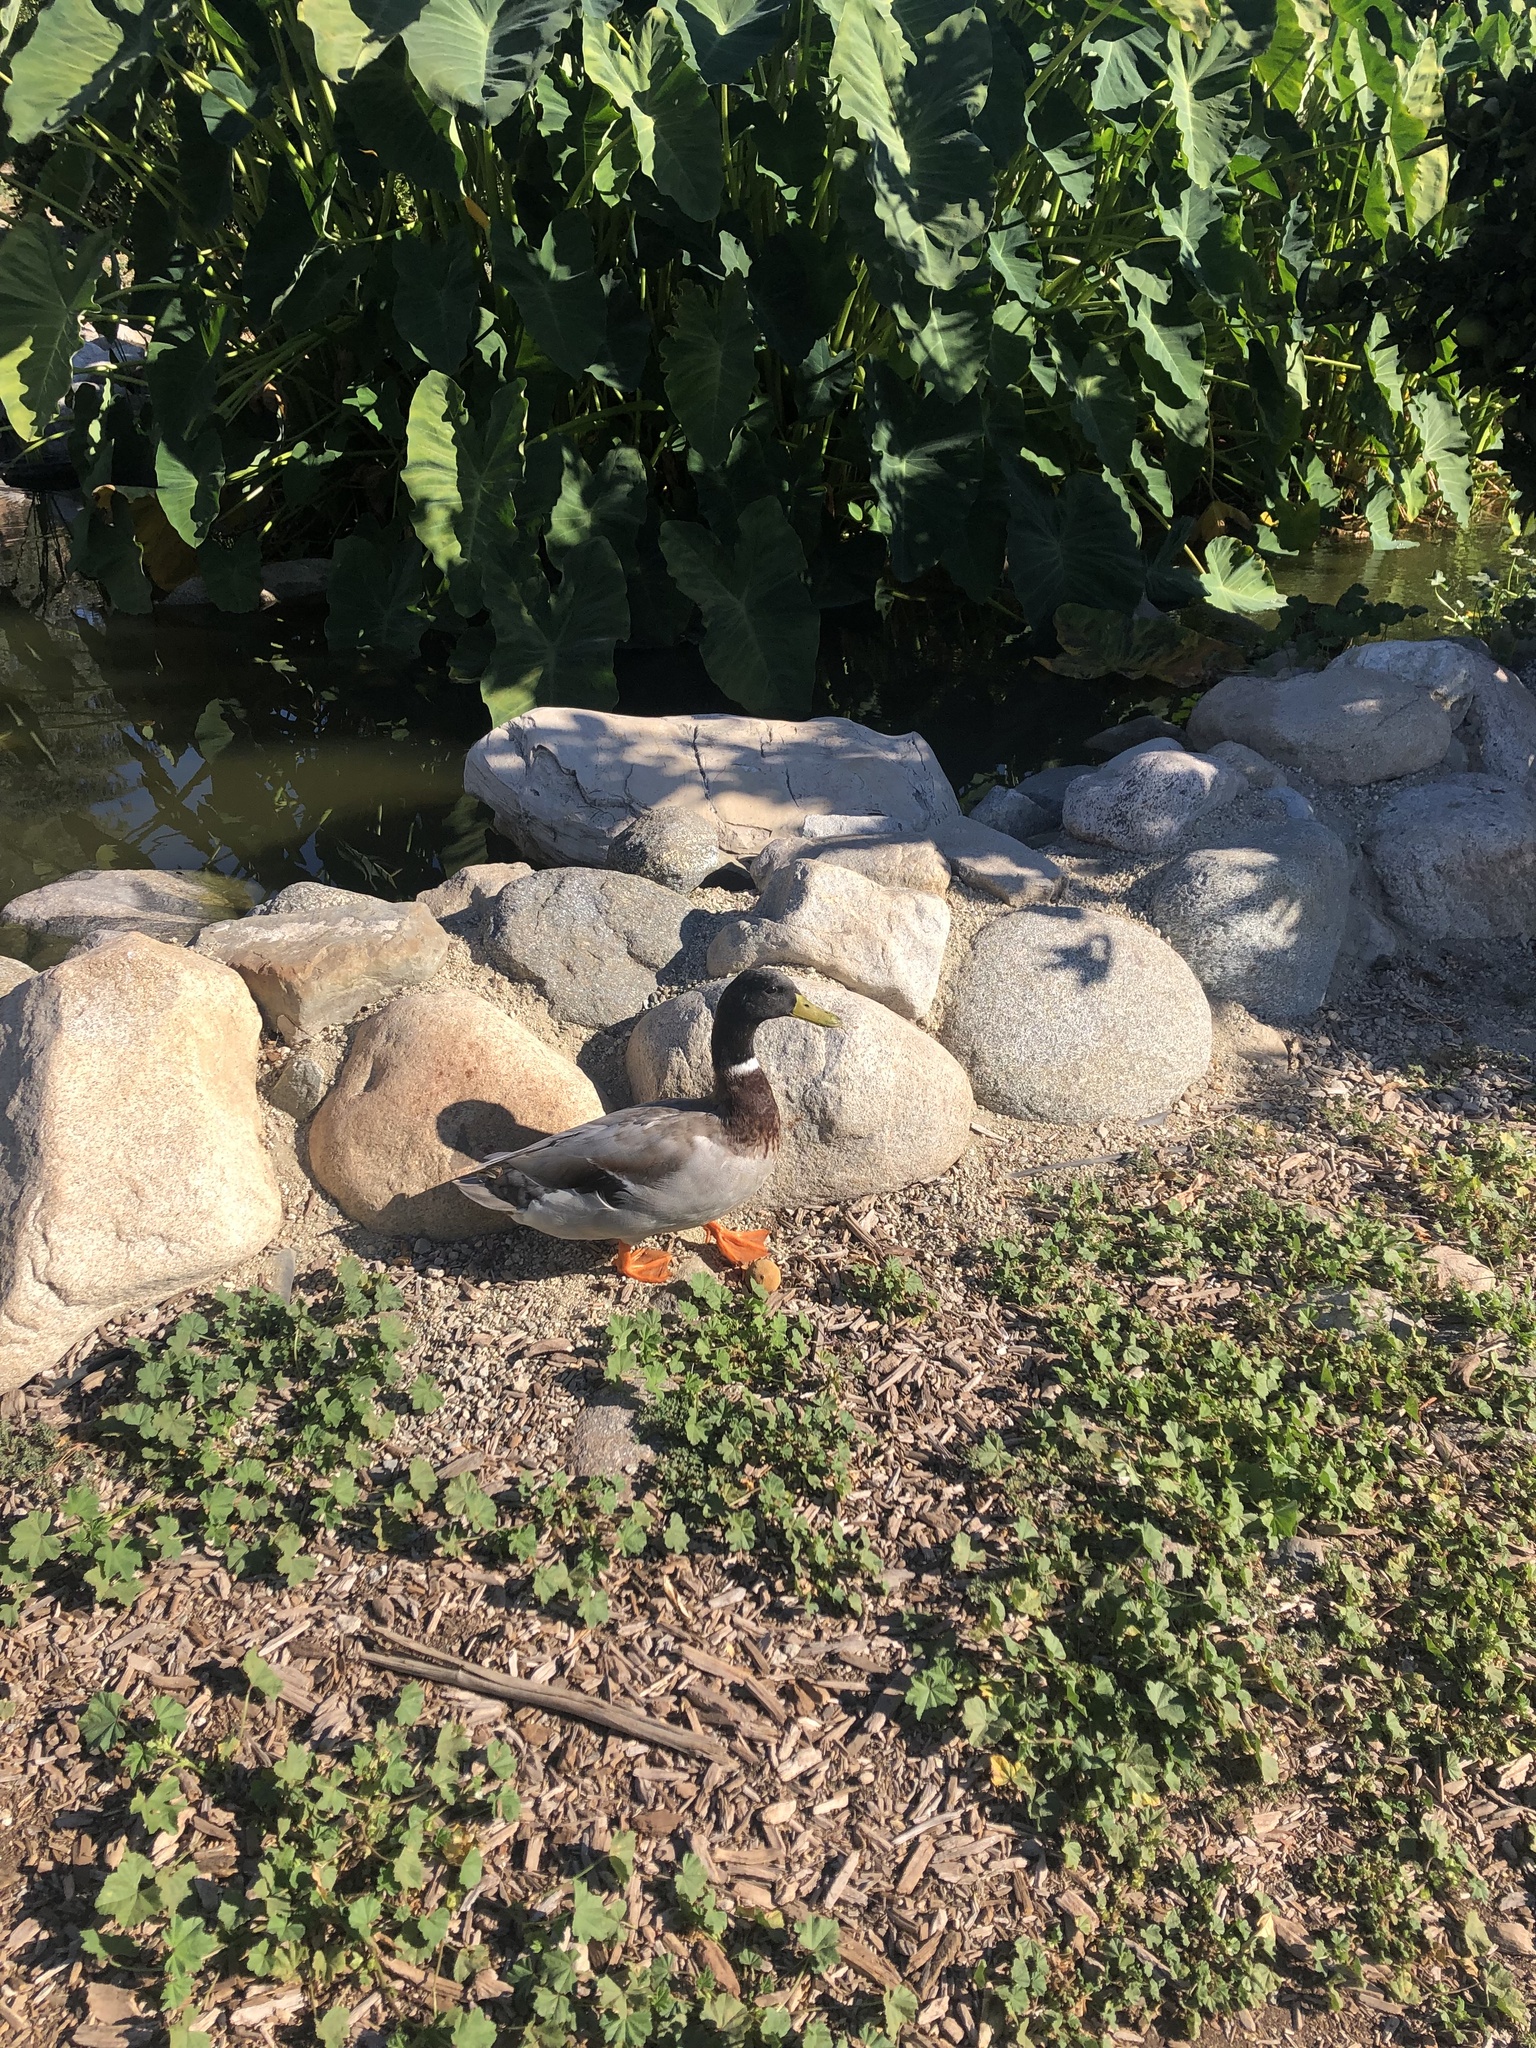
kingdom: Animalia
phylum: Chordata
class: Aves
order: Anseriformes
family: Anatidae
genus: Anas
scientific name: Anas platyrhynchos
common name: Mallard
